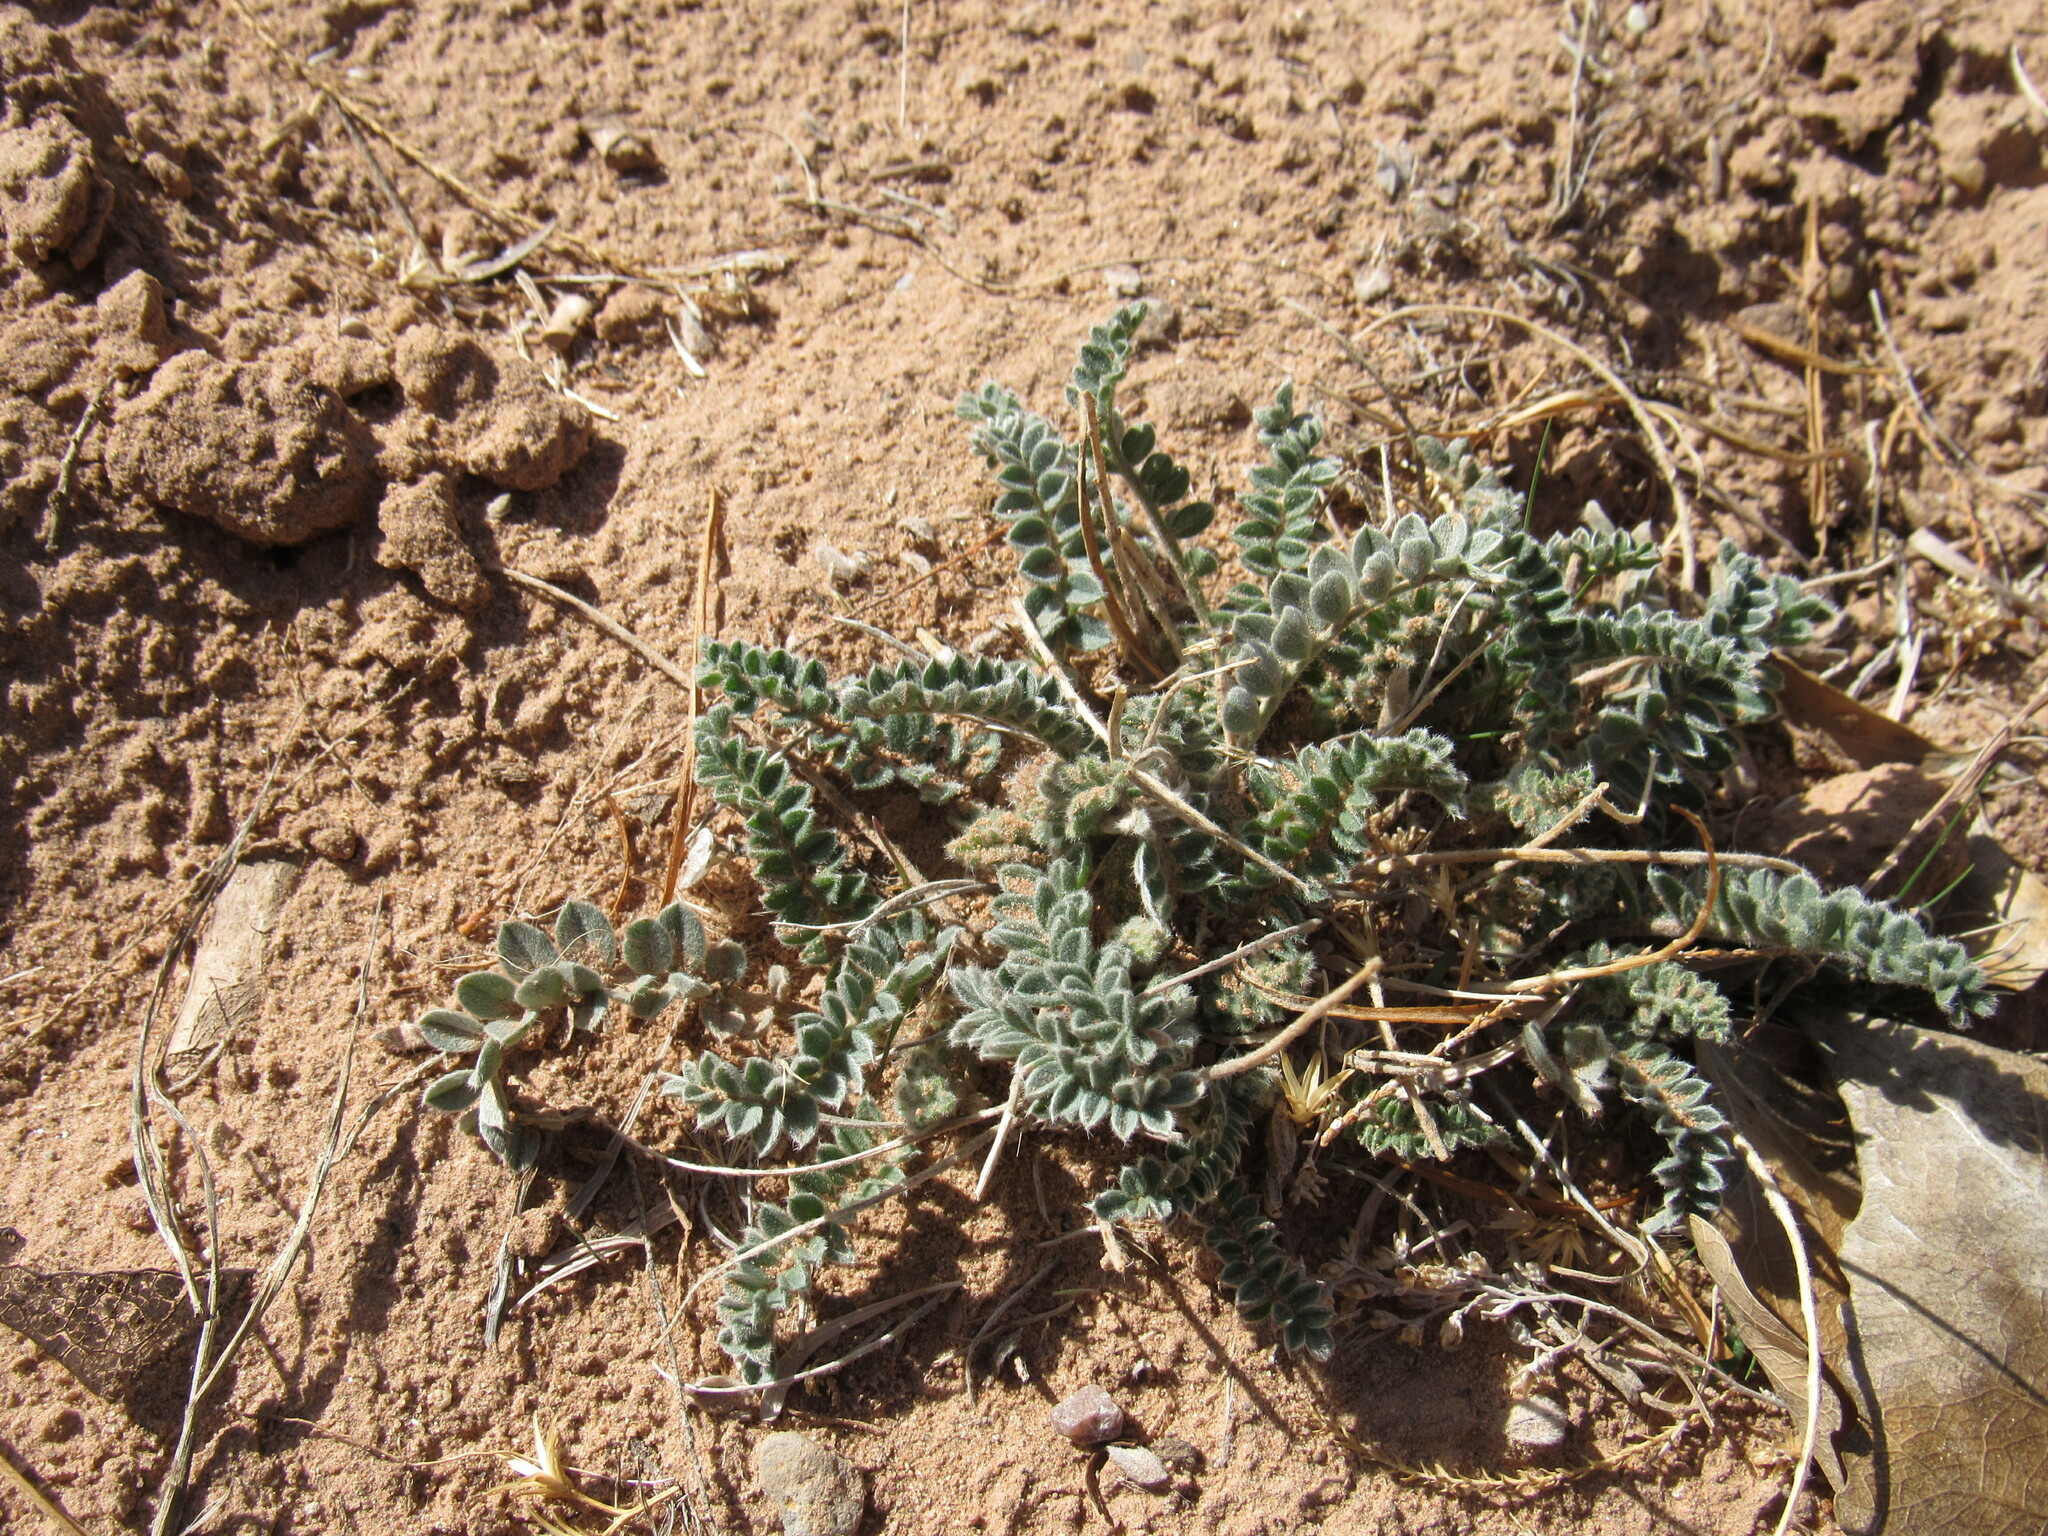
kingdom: Plantae
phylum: Tracheophyta
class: Magnoliopsida
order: Fabales
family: Fabaceae
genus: Astragalus
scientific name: Astragalus mollissimus
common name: Woolly locoweed
